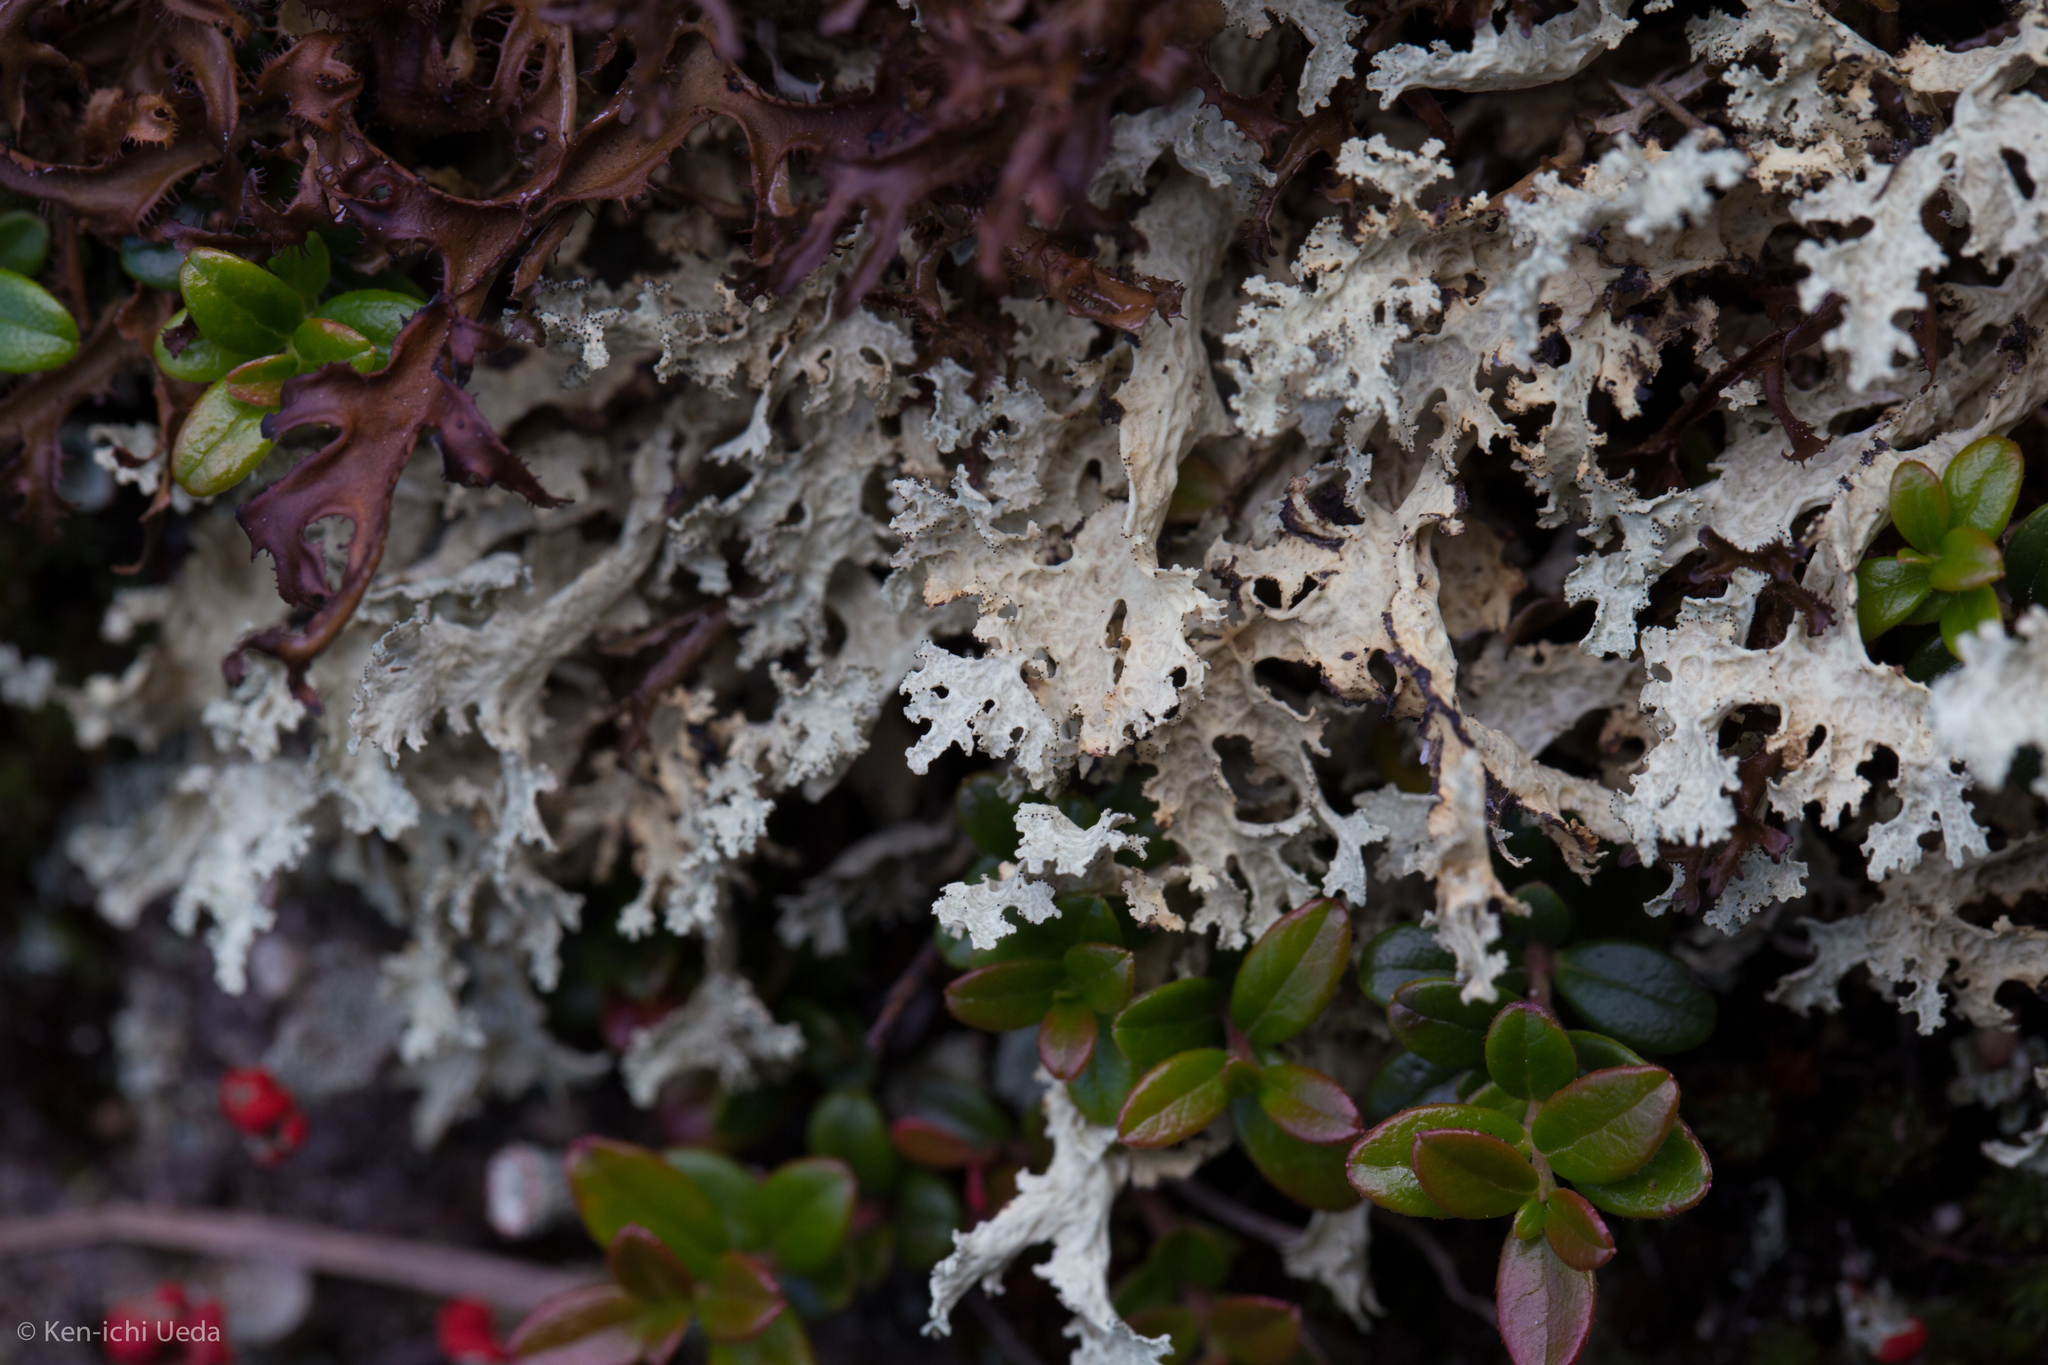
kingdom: Fungi
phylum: Ascomycota
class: Lecanoromycetes
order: Lecanorales
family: Parmeliaceae
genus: Nephromopsis
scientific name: Nephromopsis nivalis
